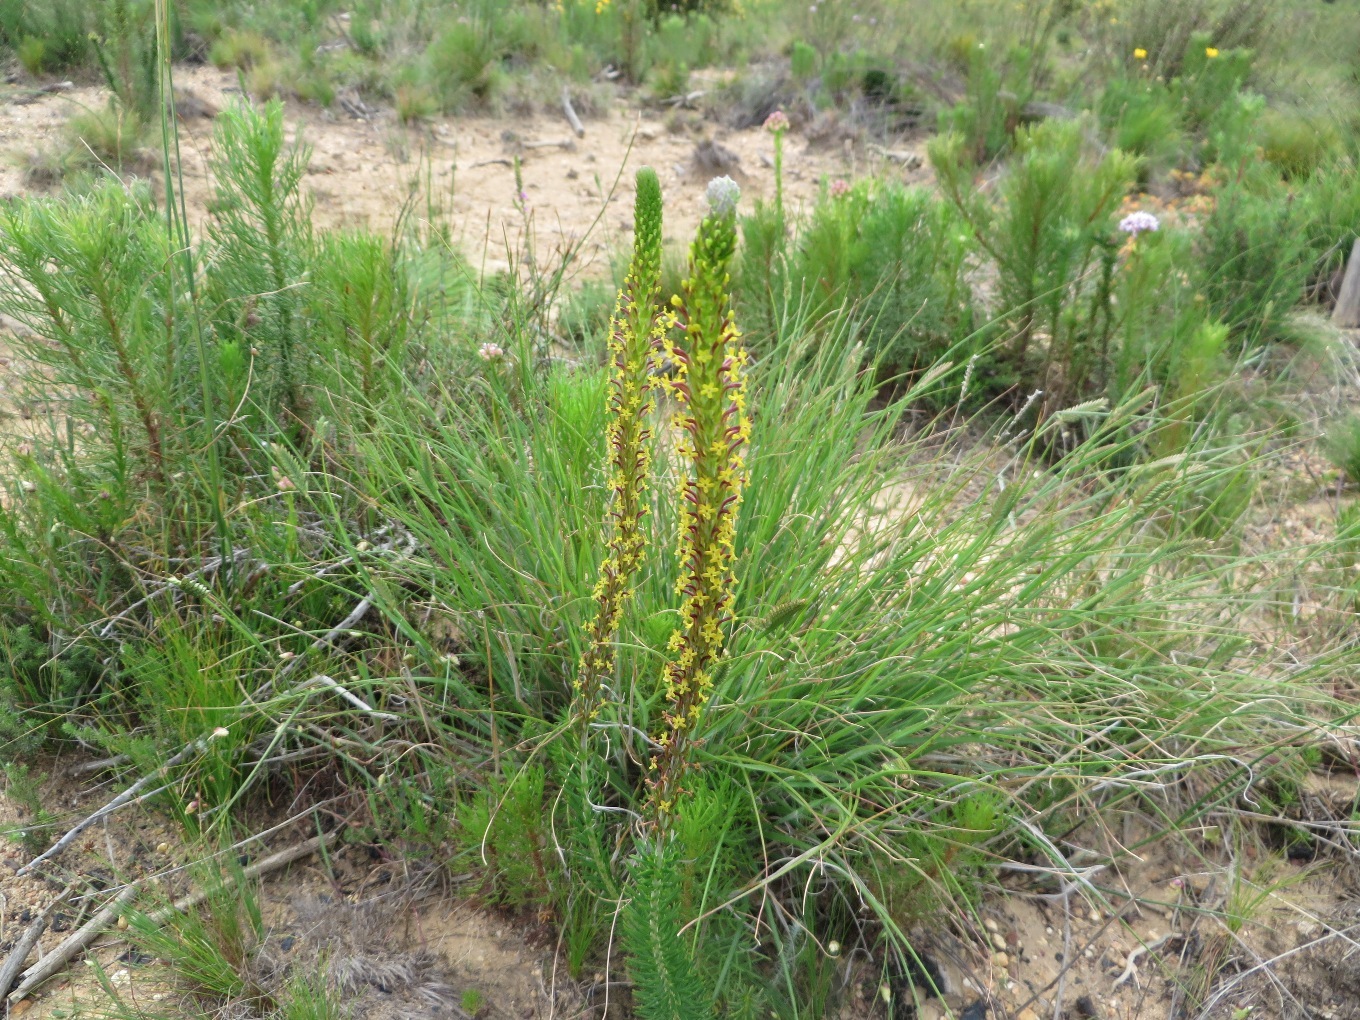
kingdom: Plantae
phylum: Tracheophyta
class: Magnoliopsida
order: Lamiales
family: Scrophulariaceae
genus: Microdon
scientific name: Microdon dubius
